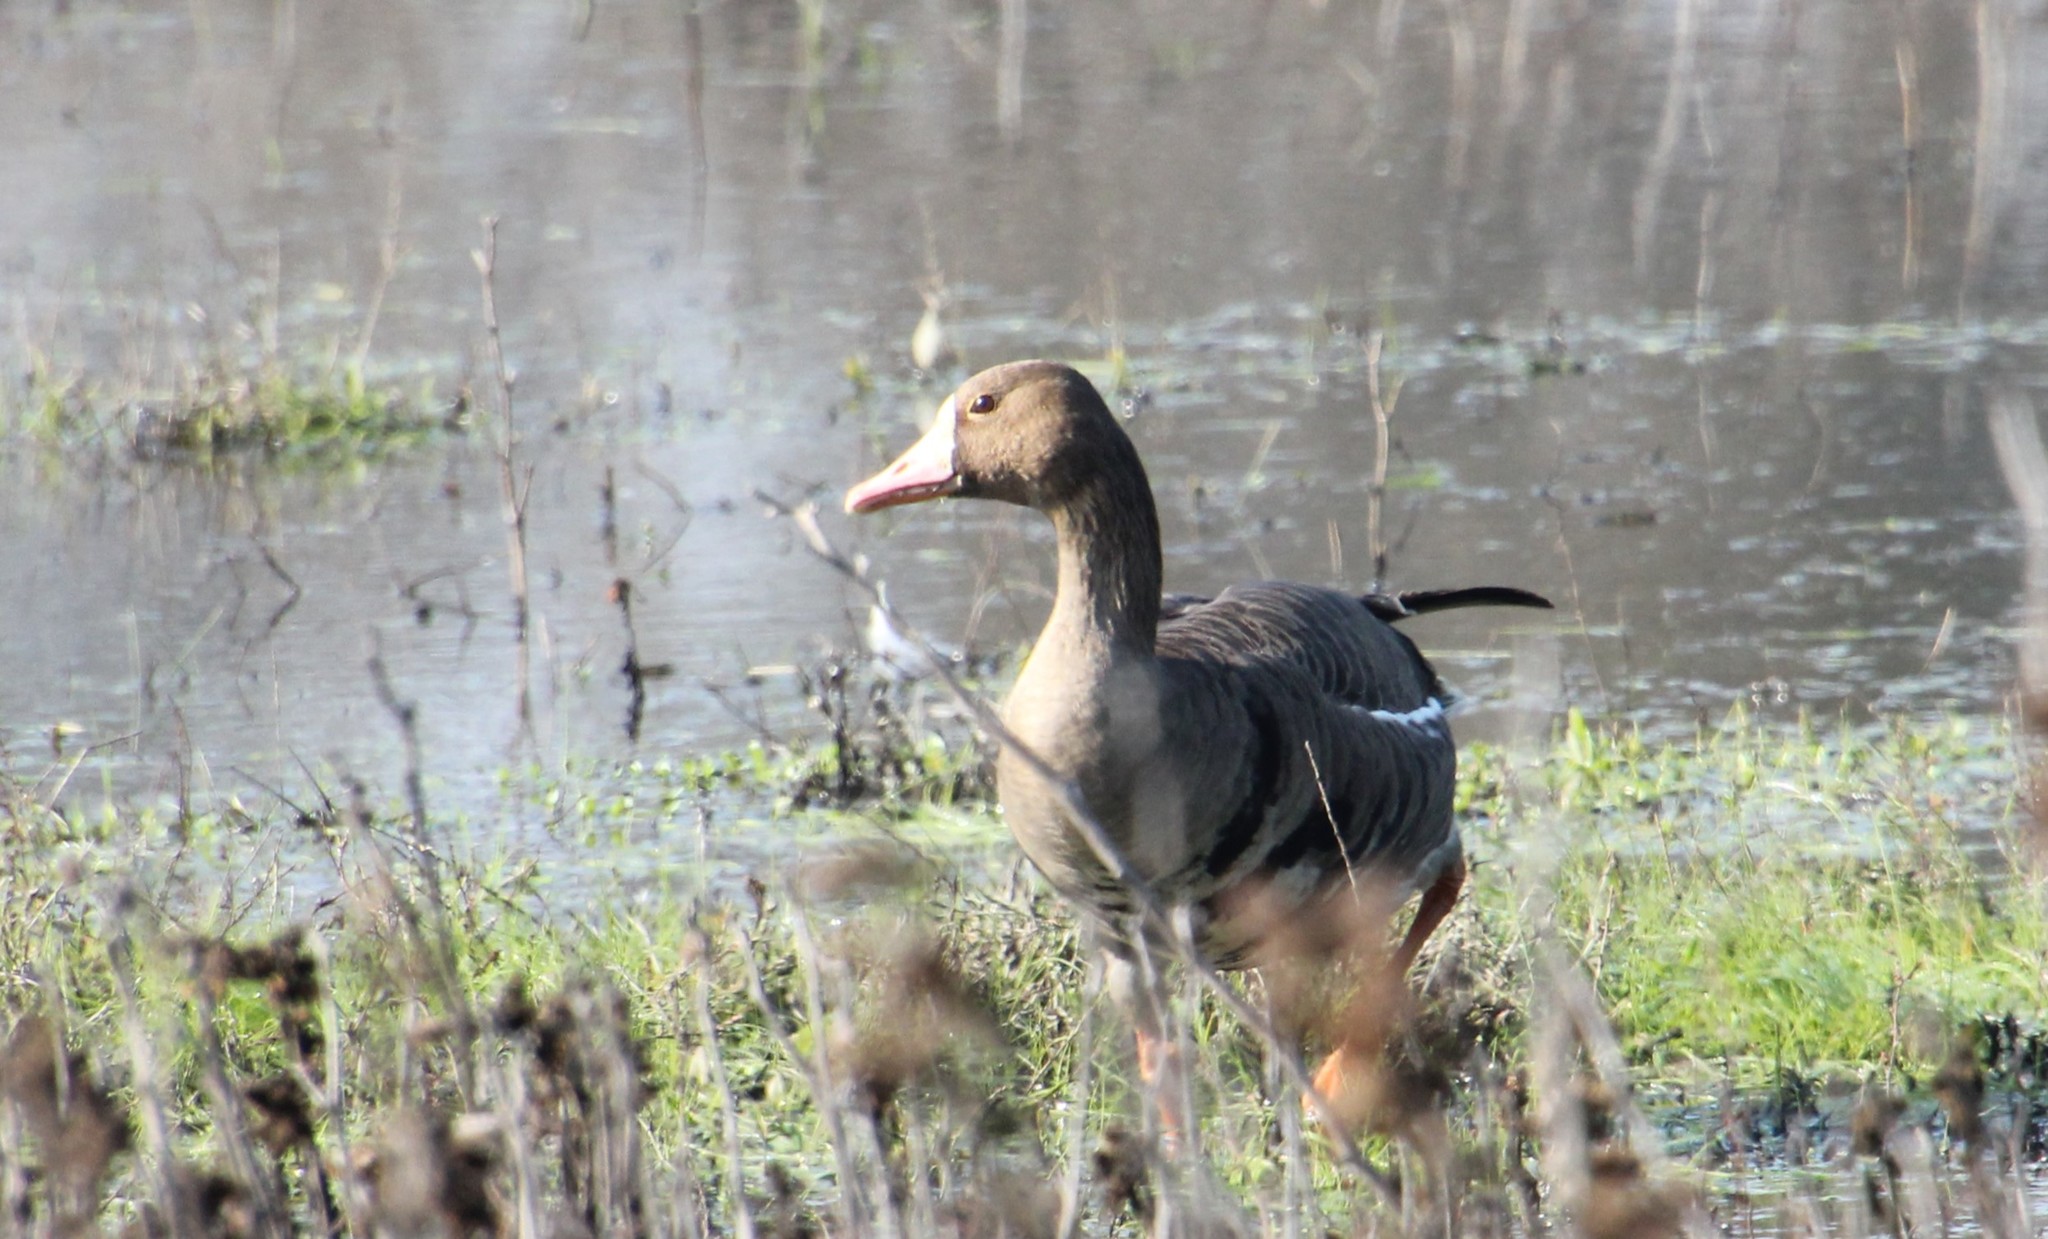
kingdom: Animalia
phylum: Chordata
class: Aves
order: Anseriformes
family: Anatidae
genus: Anser
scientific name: Anser albifrons
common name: Greater white-fronted goose
